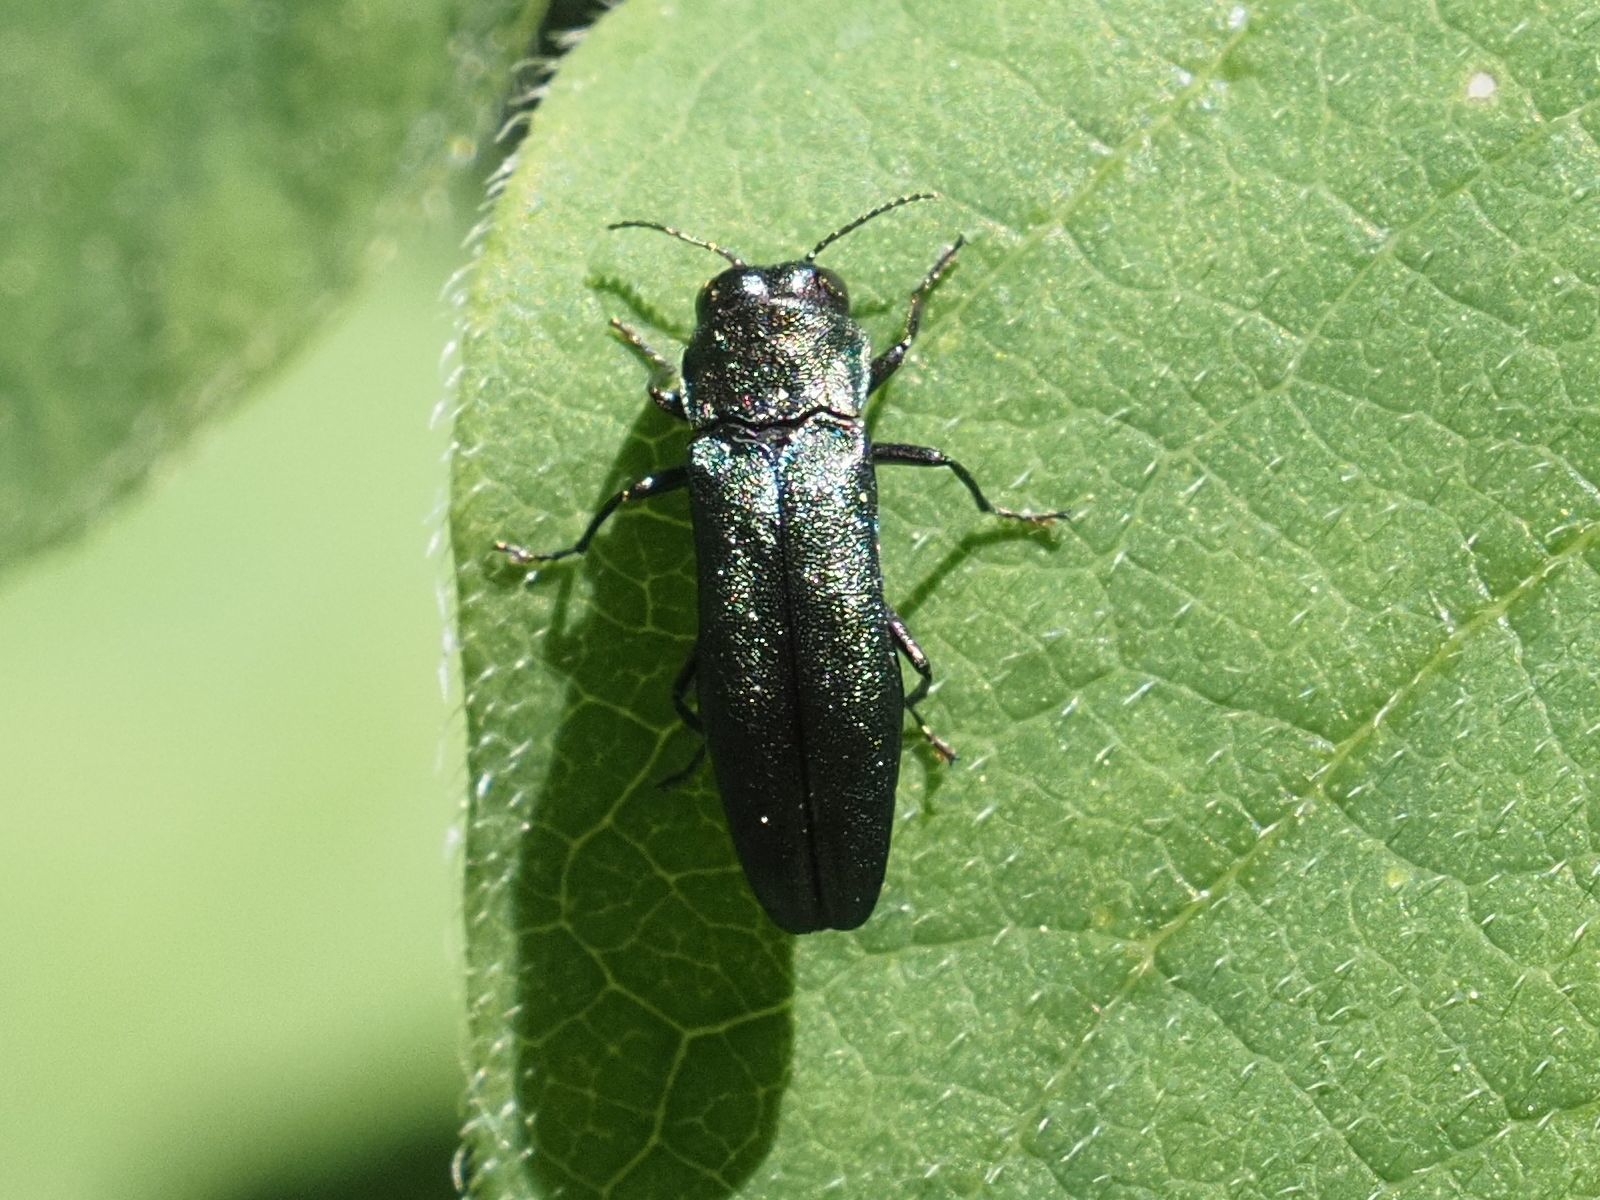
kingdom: Animalia
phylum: Arthropoda
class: Insecta
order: Coleoptera
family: Buprestidae
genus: Agrilus
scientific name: Agrilus cyanescens
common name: Bluish borer beetle
